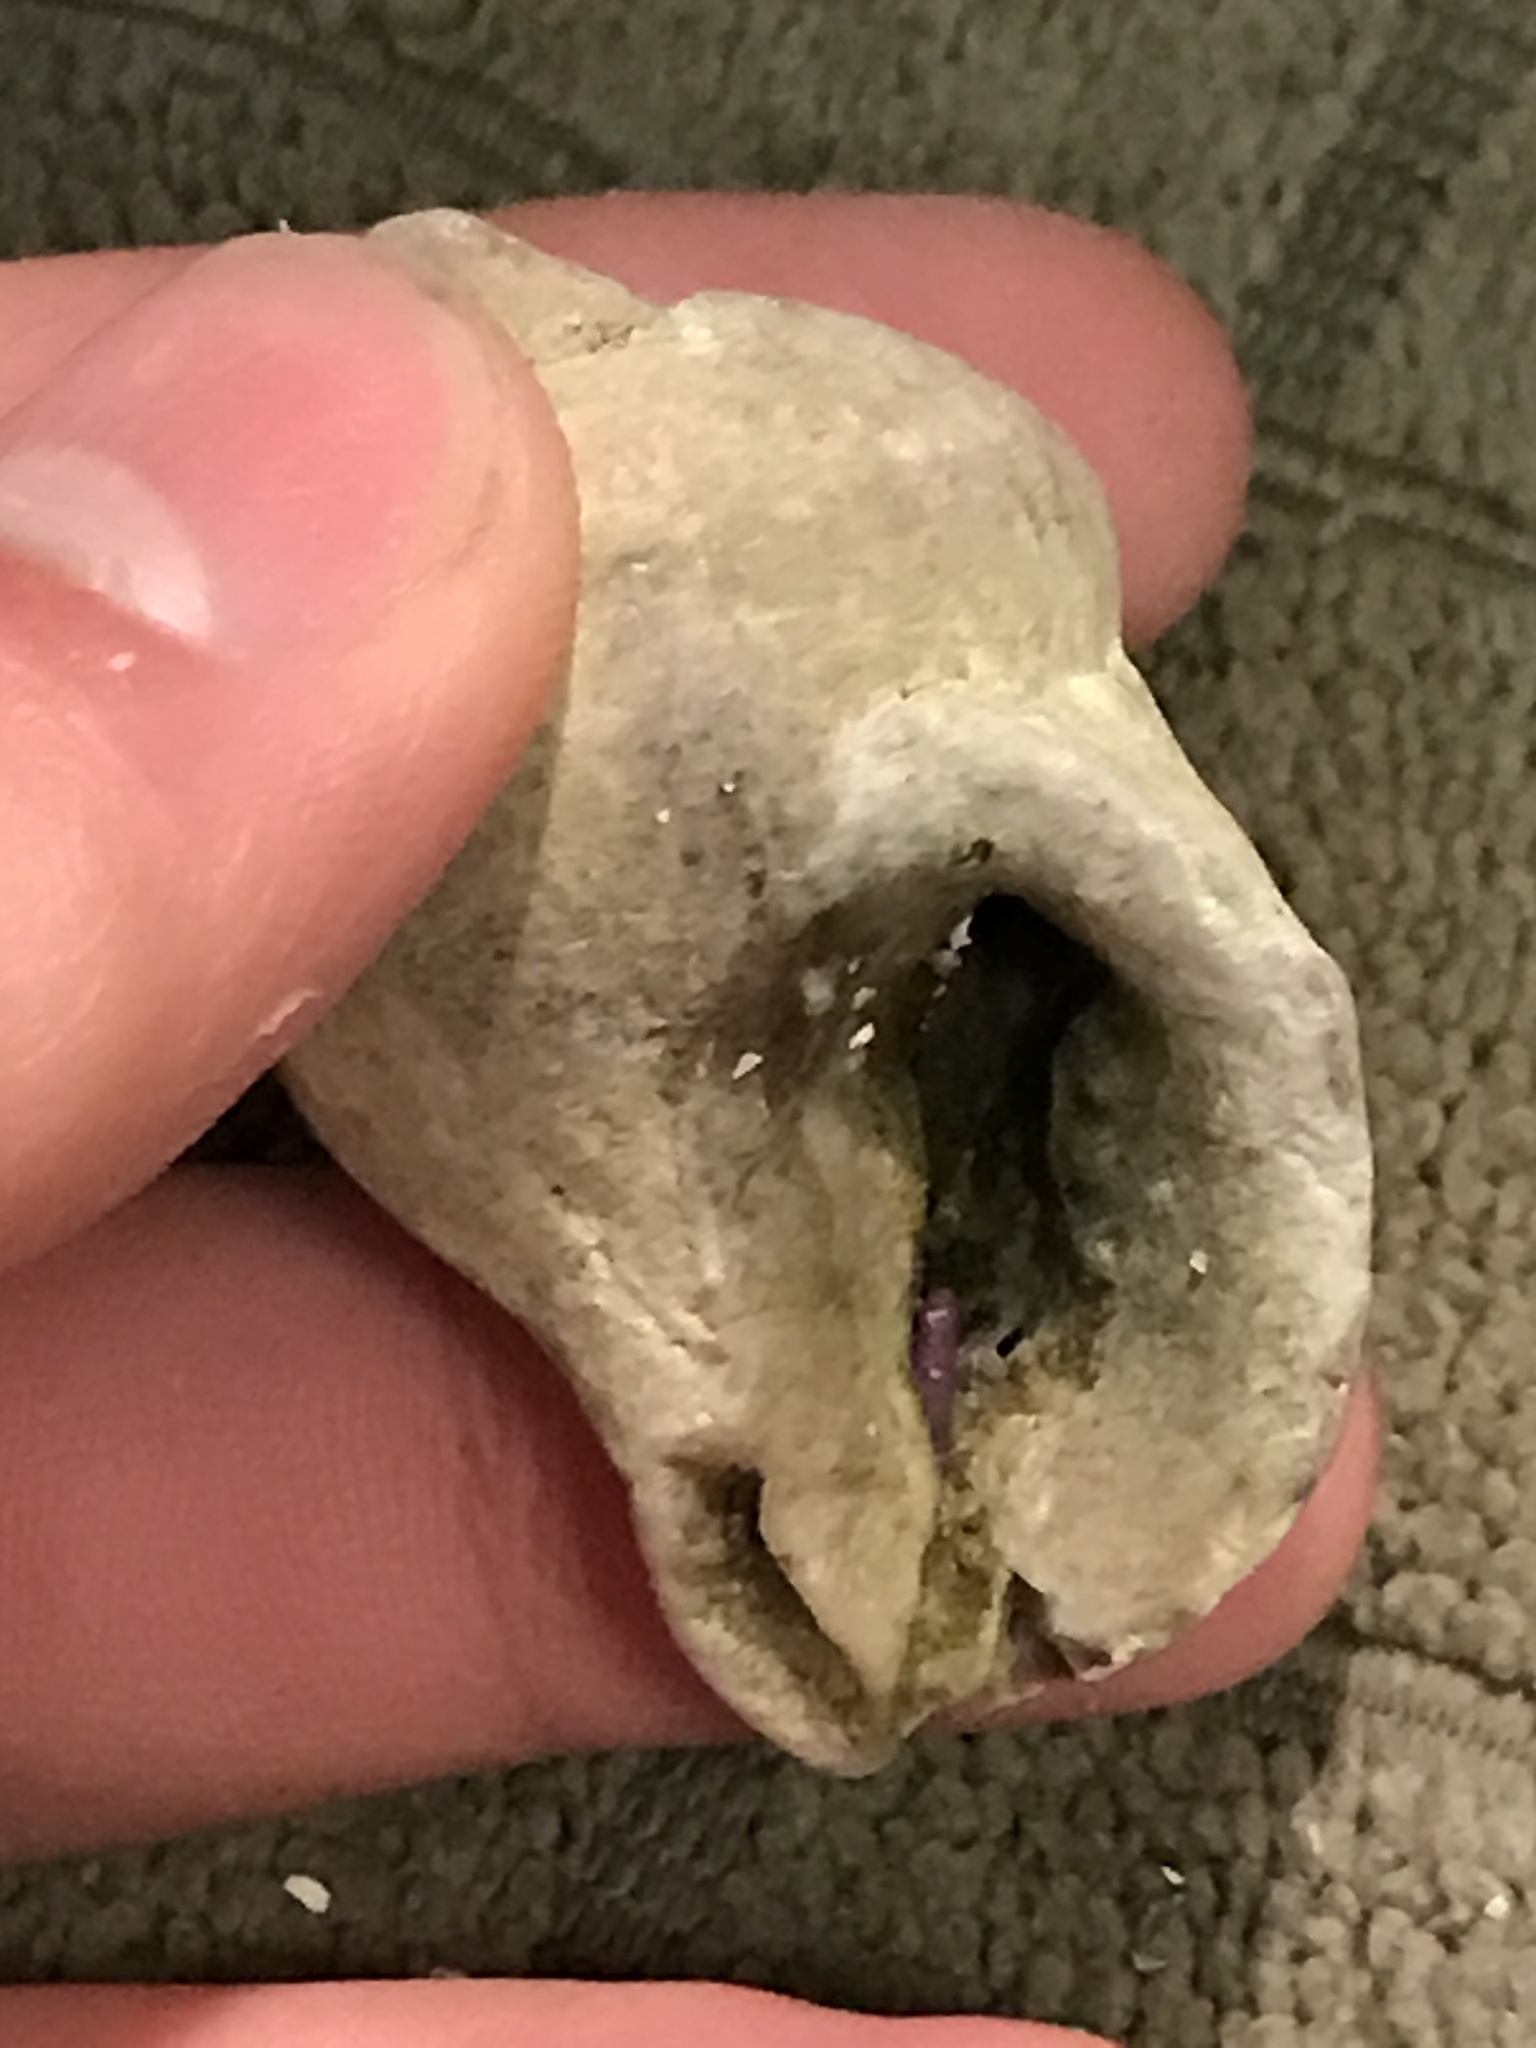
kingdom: Animalia
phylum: Mollusca
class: Gastropoda
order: Neogastropoda
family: Muricidae
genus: Nucella
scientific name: Nucella lamellosa
